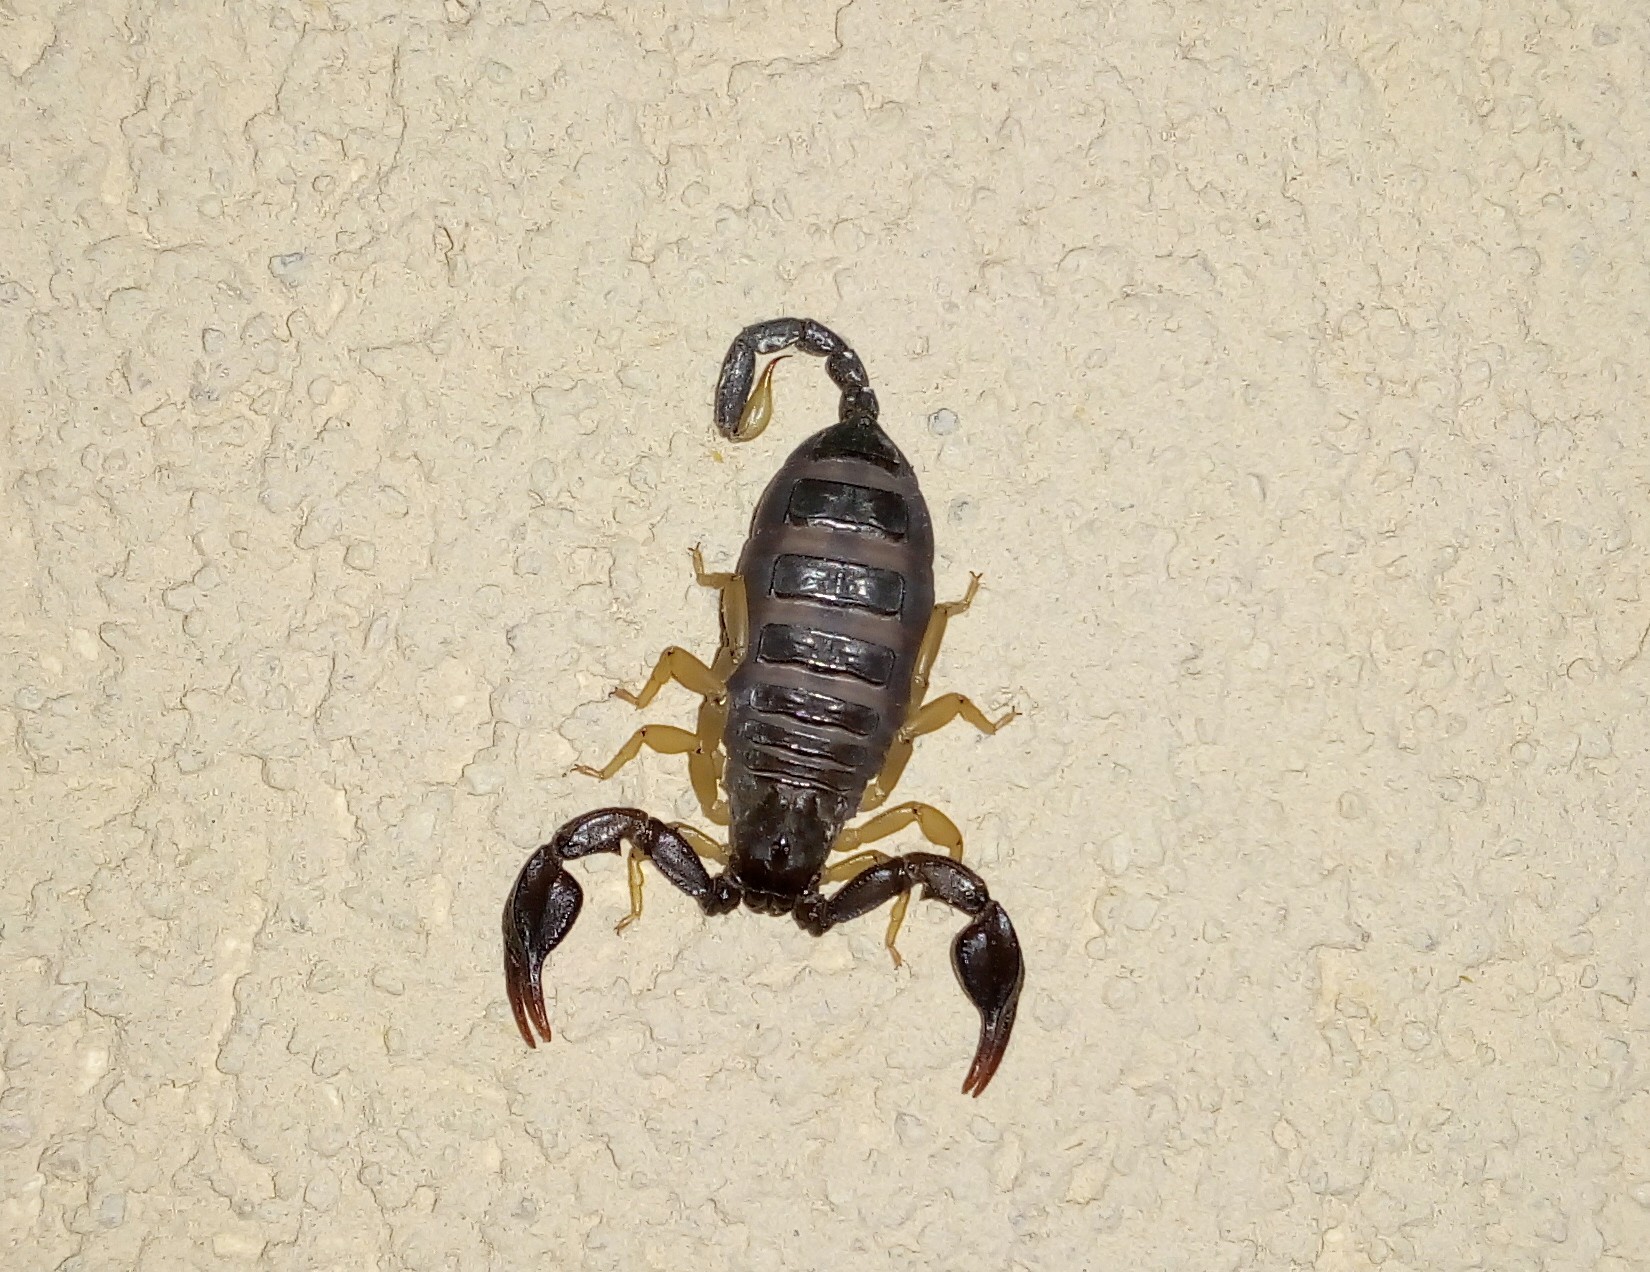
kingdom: Animalia
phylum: Arthropoda
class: Arachnida
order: Scorpiones
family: Euscorpiidae
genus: Euscorpius
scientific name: Euscorpius
